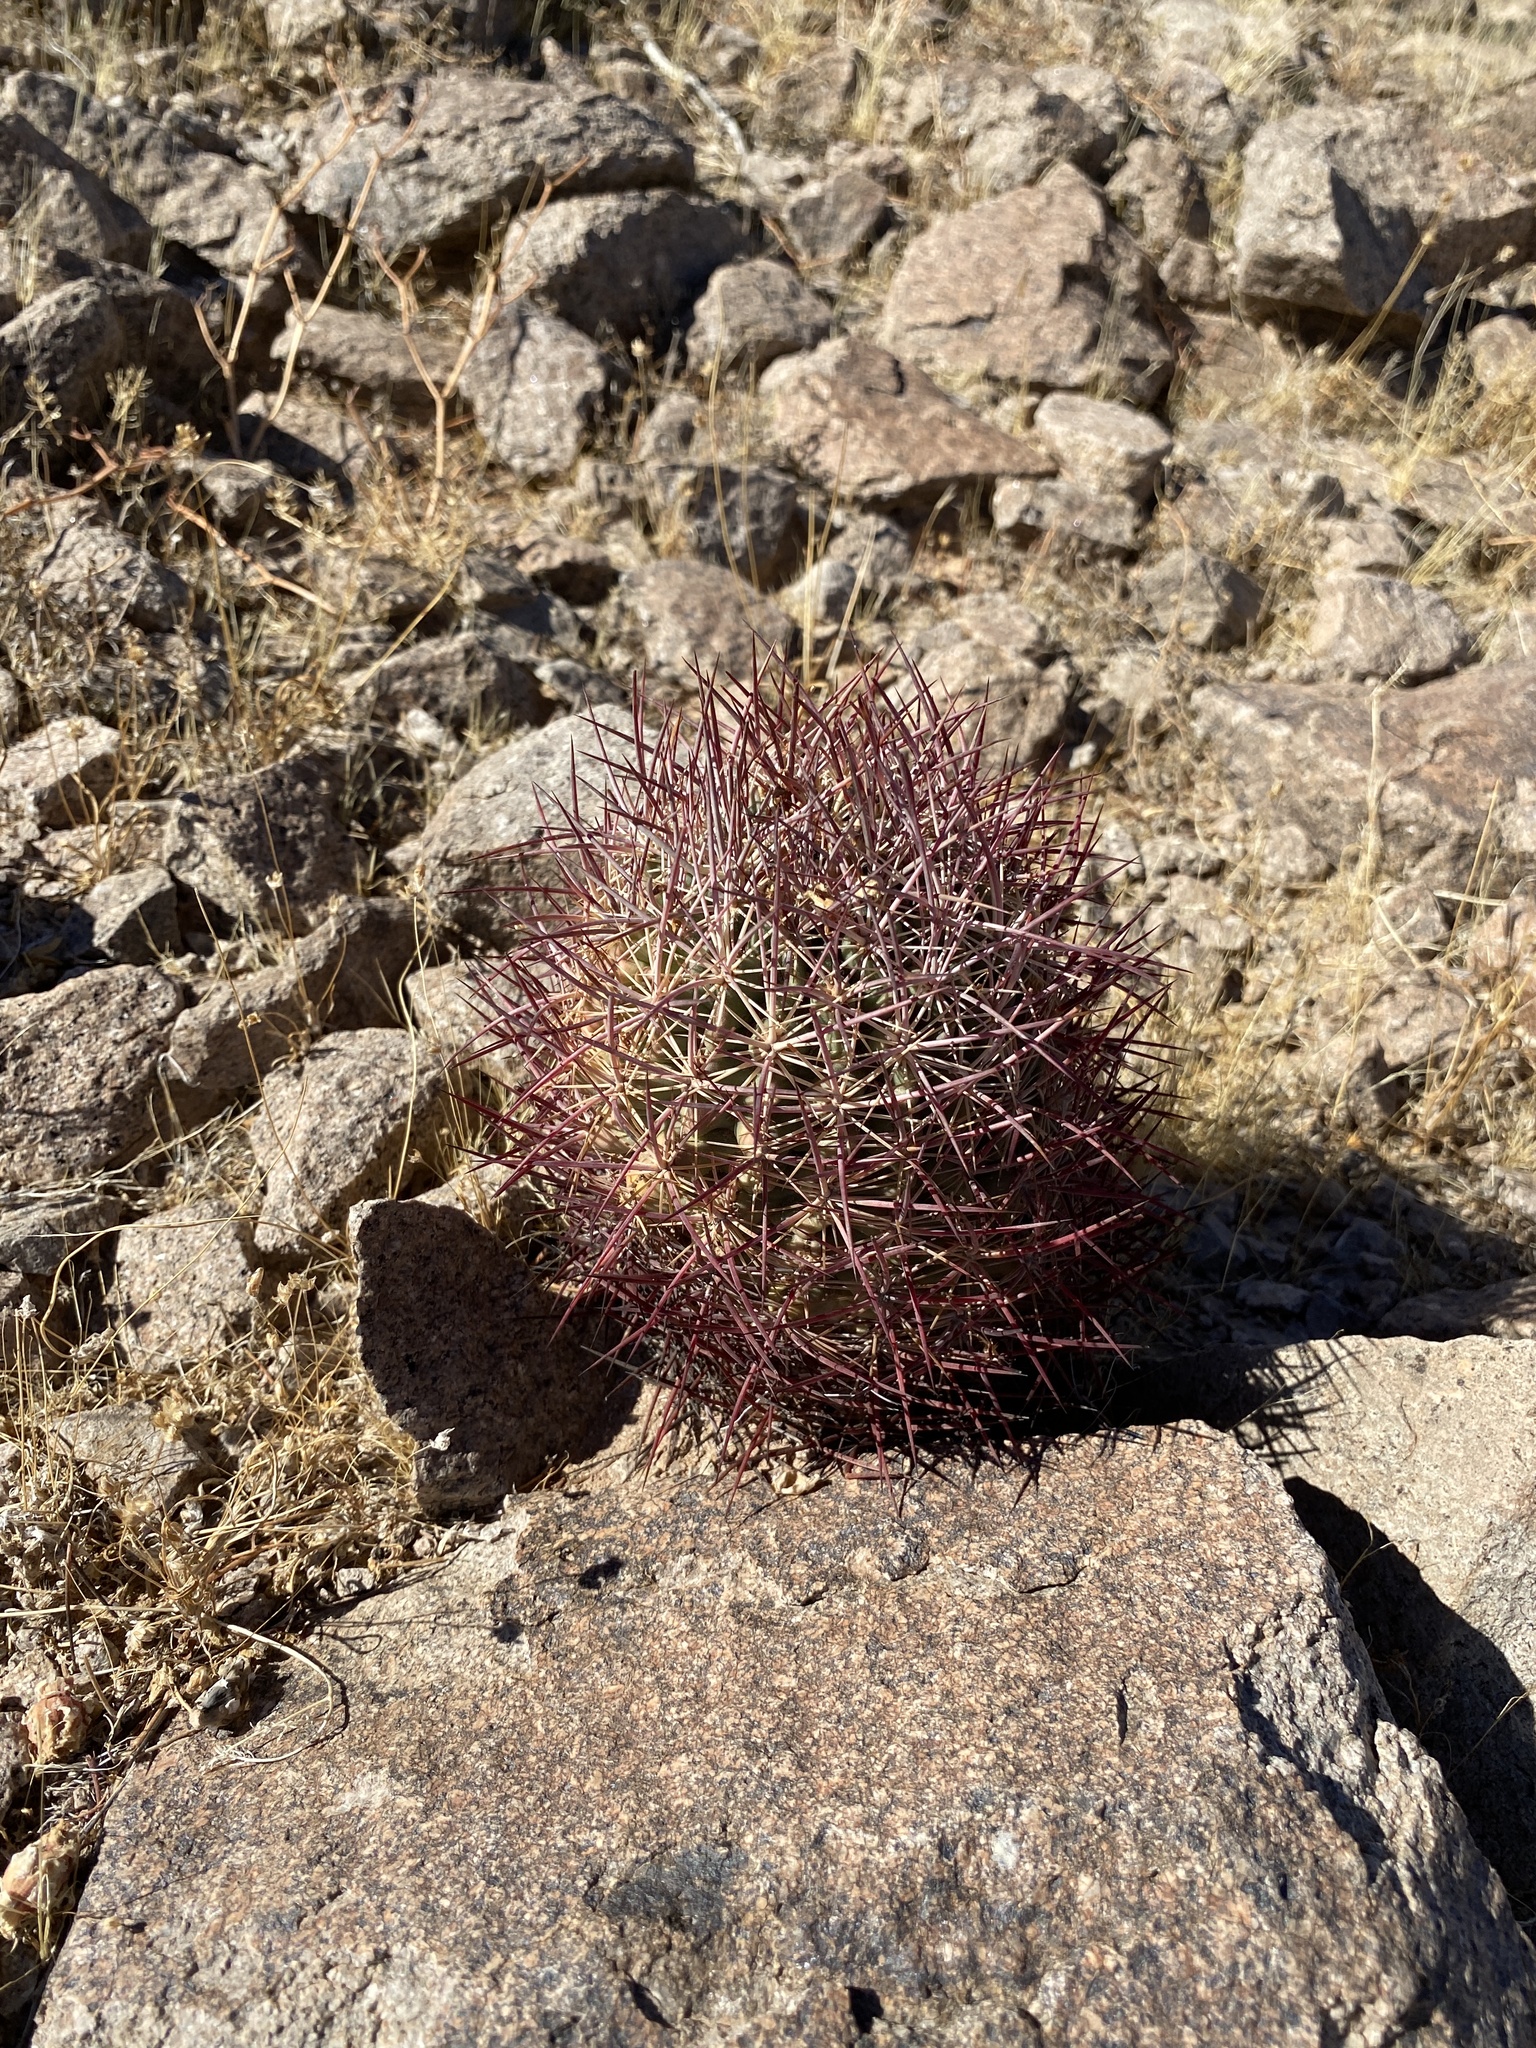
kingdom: Plantae
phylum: Tracheophyta
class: Magnoliopsida
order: Caryophyllales
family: Cactaceae
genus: Sclerocactus
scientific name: Sclerocactus johnsonii
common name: Eight-spine fishhook cactus
